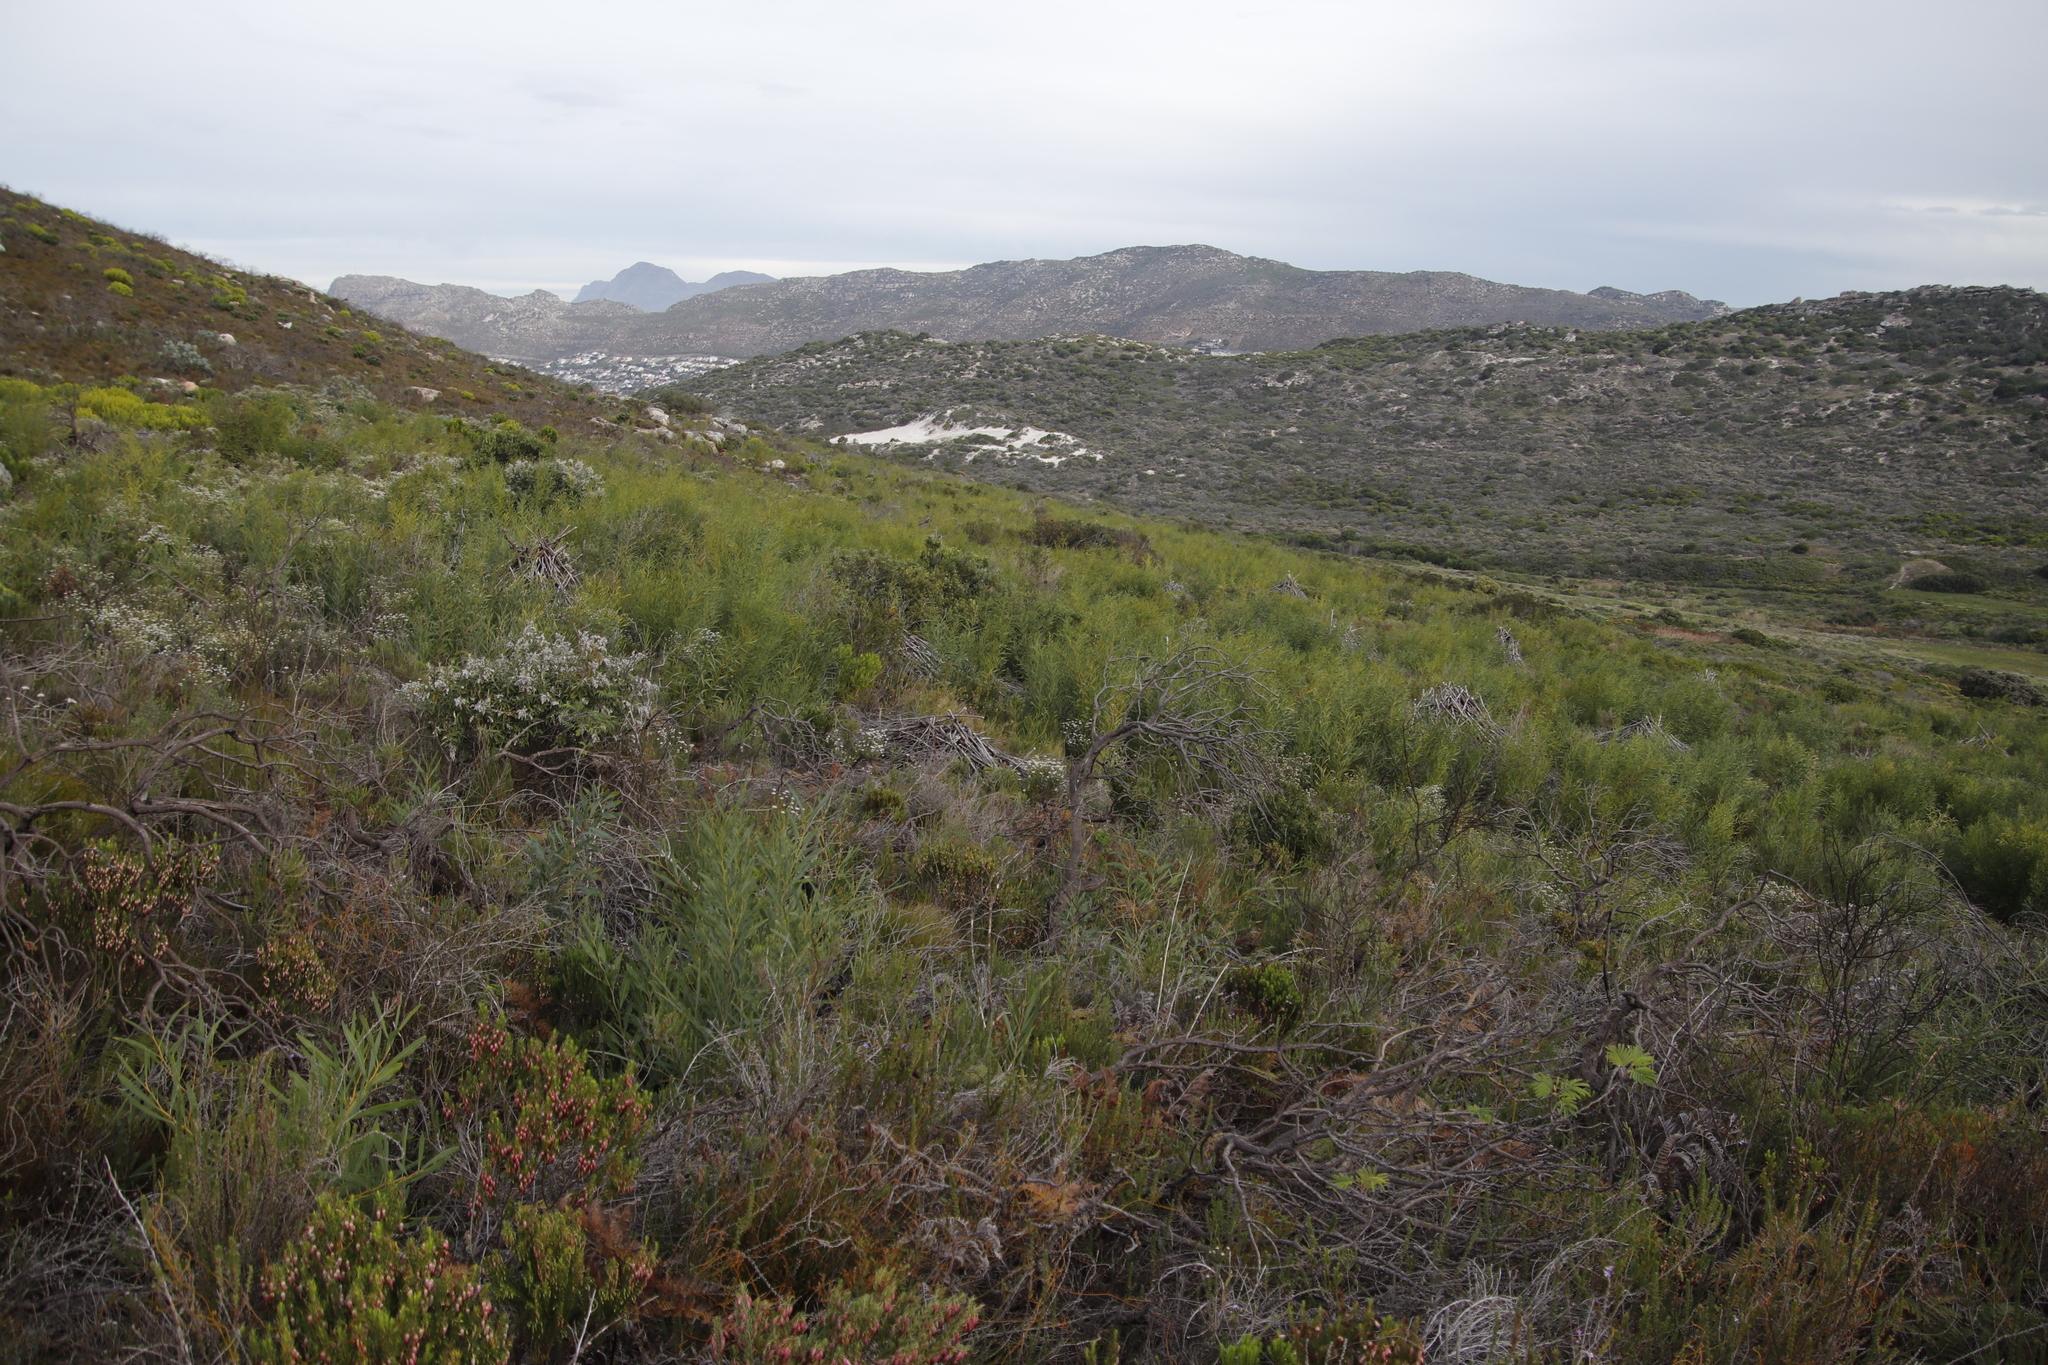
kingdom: Plantae
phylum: Tracheophyta
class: Magnoliopsida
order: Fabales
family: Fabaceae
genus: Acacia
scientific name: Acacia saligna
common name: Orange wattle
